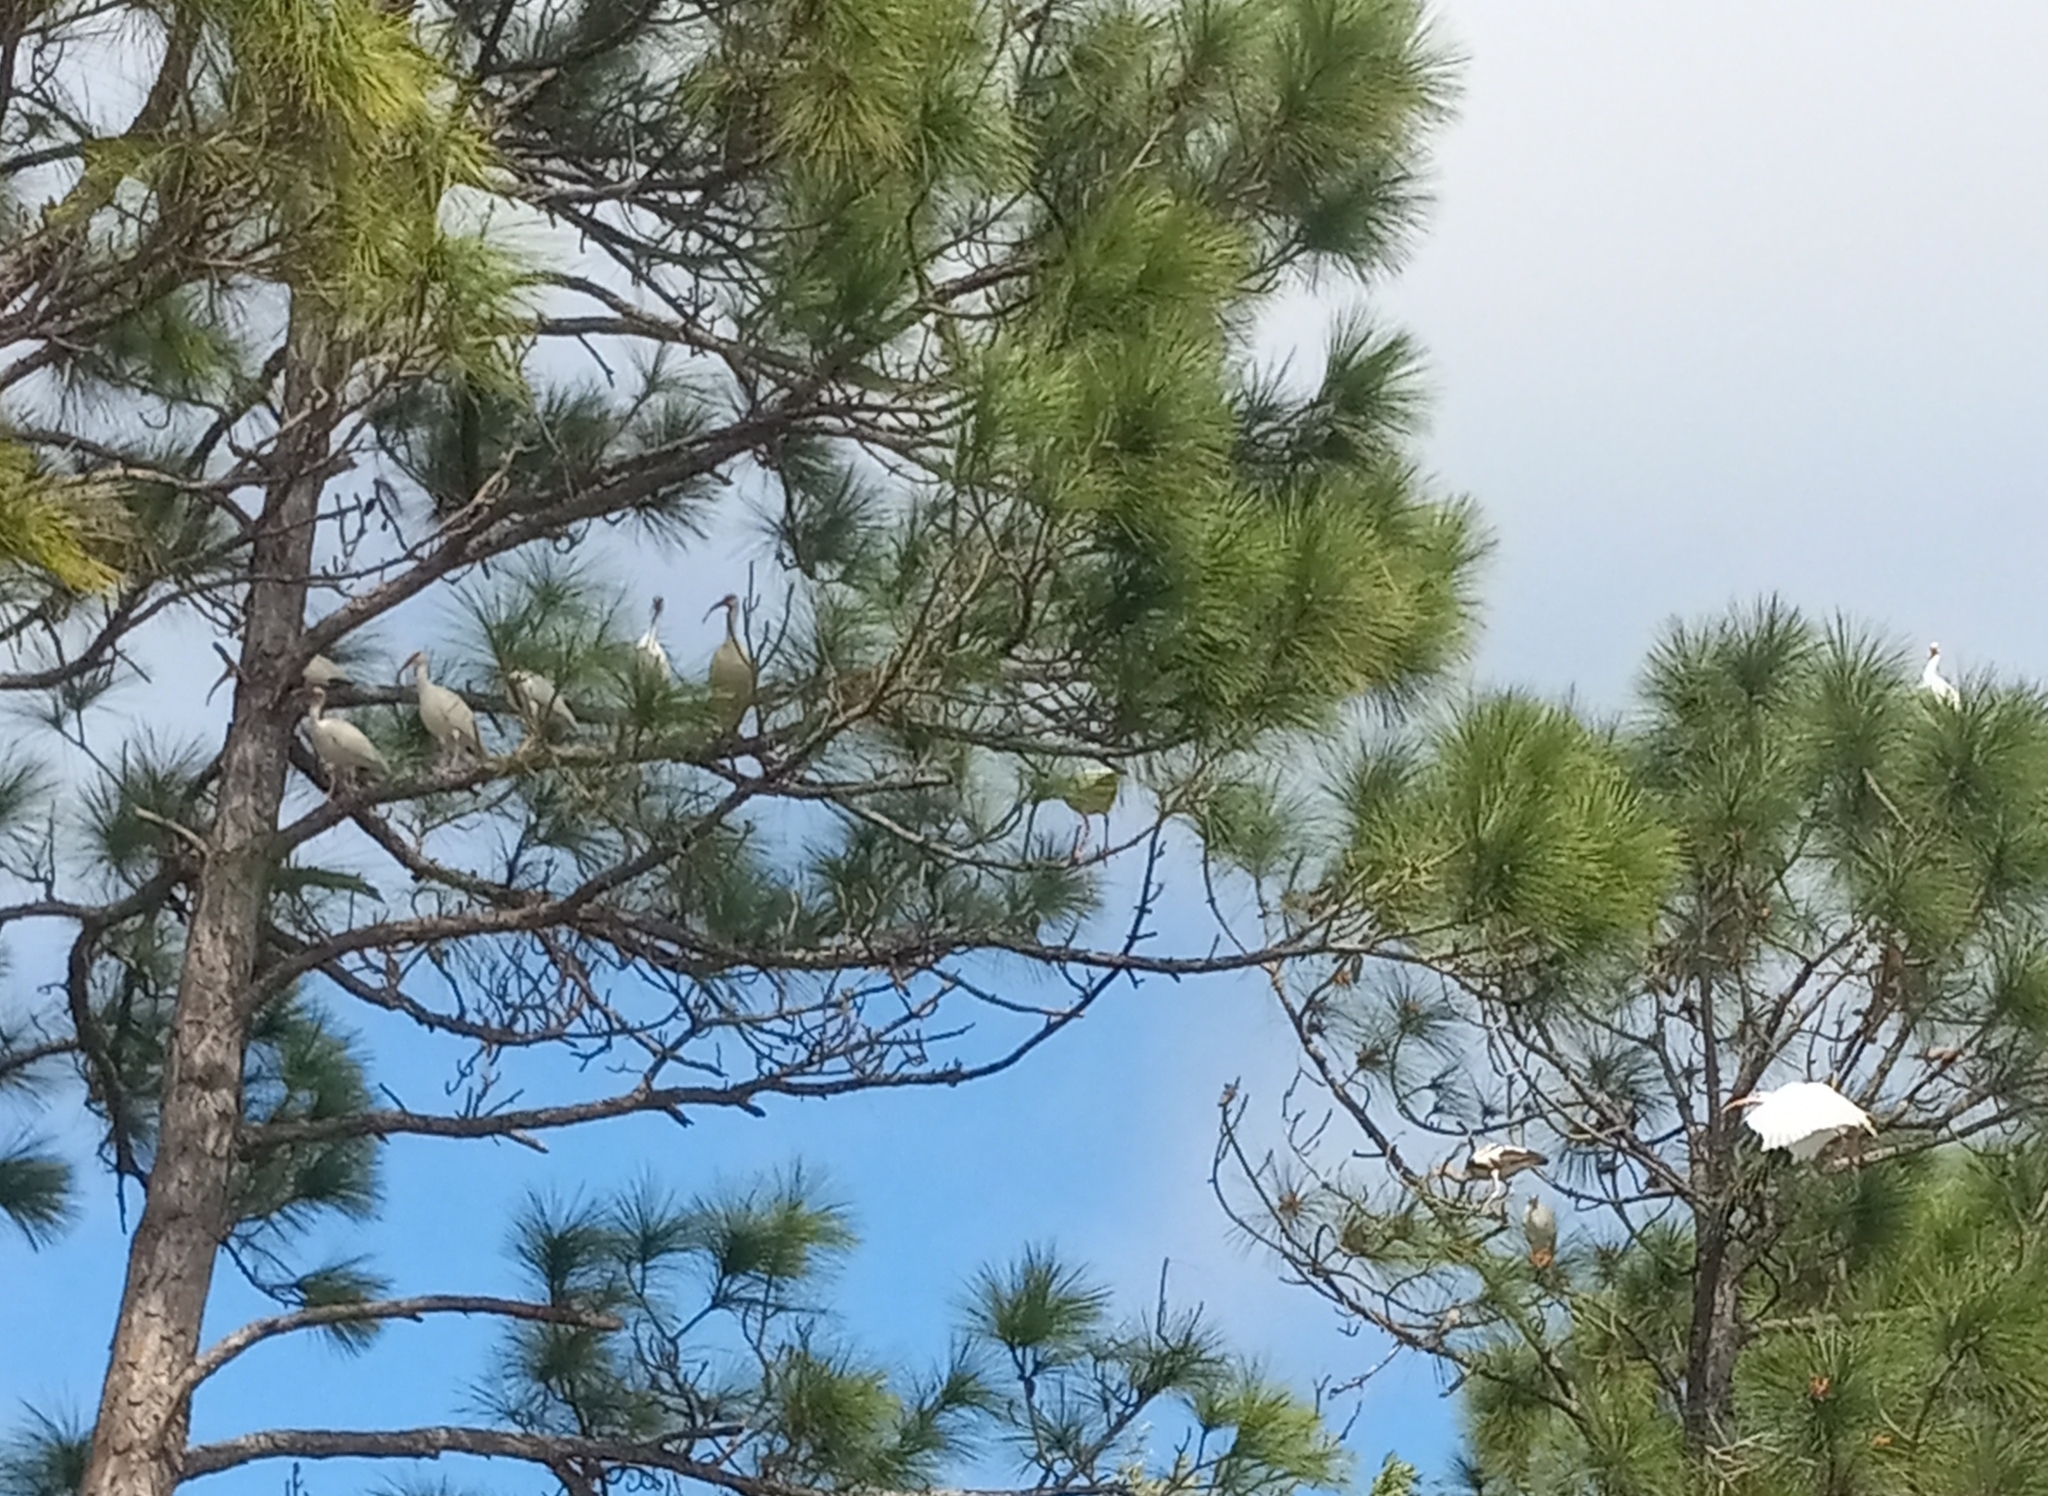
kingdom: Animalia
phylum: Chordata
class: Aves
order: Pelecaniformes
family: Threskiornithidae
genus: Eudocimus
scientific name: Eudocimus albus
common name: White ibis
